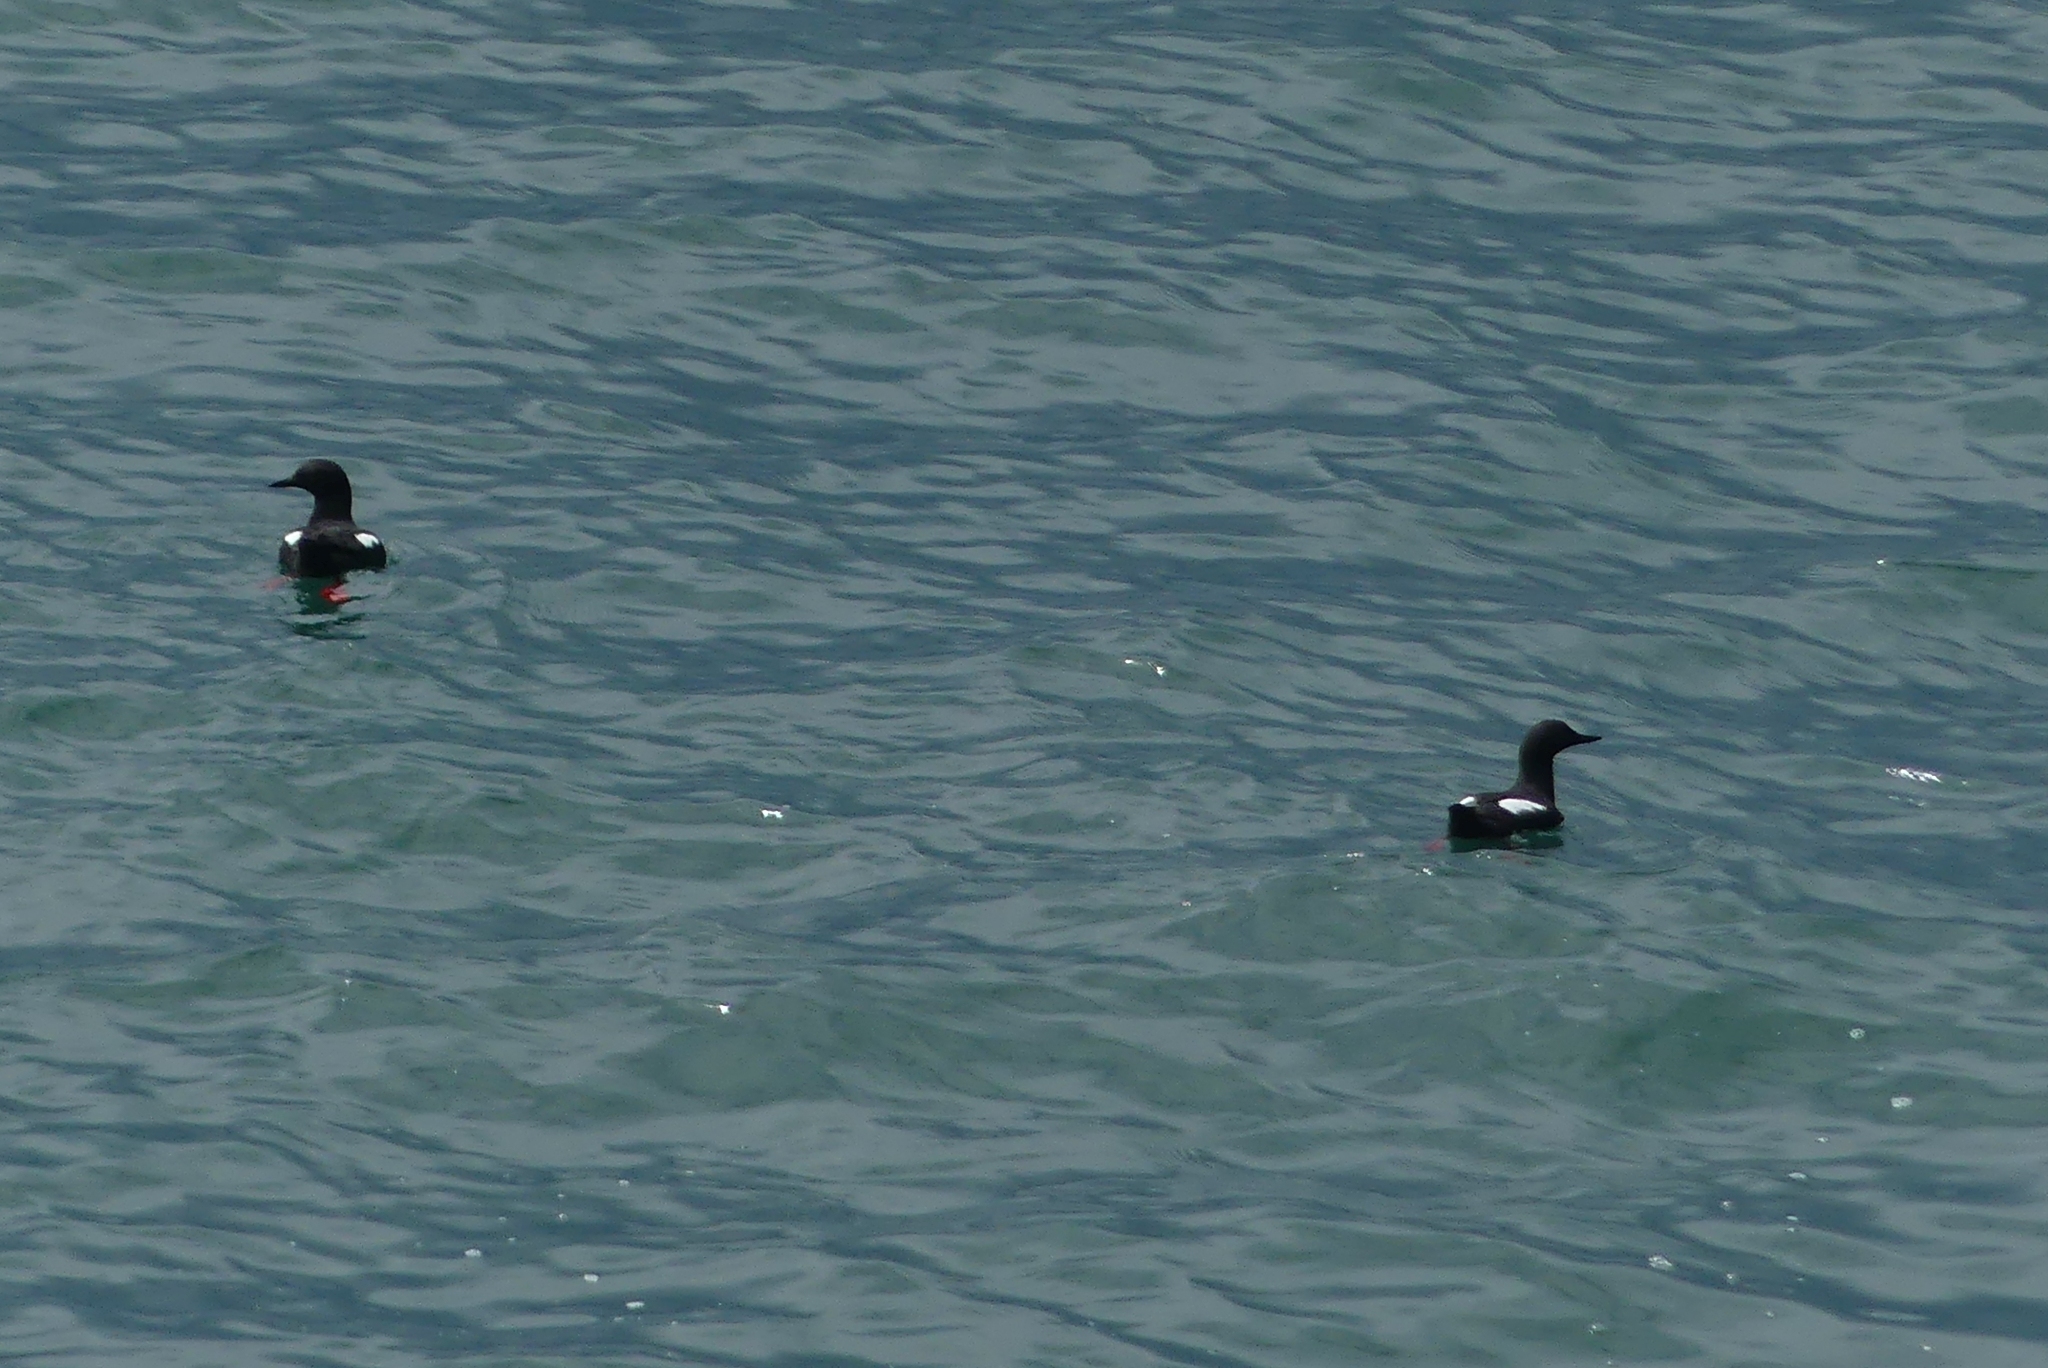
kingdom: Animalia
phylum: Chordata
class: Aves
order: Charadriiformes
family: Alcidae
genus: Cepphus
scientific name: Cepphus columba
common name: Pigeon guillemot
